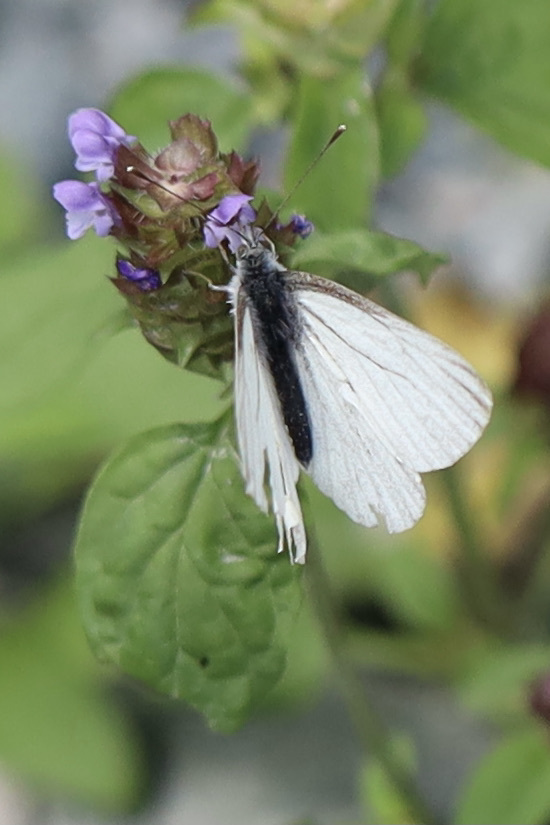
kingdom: Animalia
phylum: Arthropoda
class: Insecta
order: Lepidoptera
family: Pieridae
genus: Pieris
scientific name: Pieris marginalis
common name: Margined white
